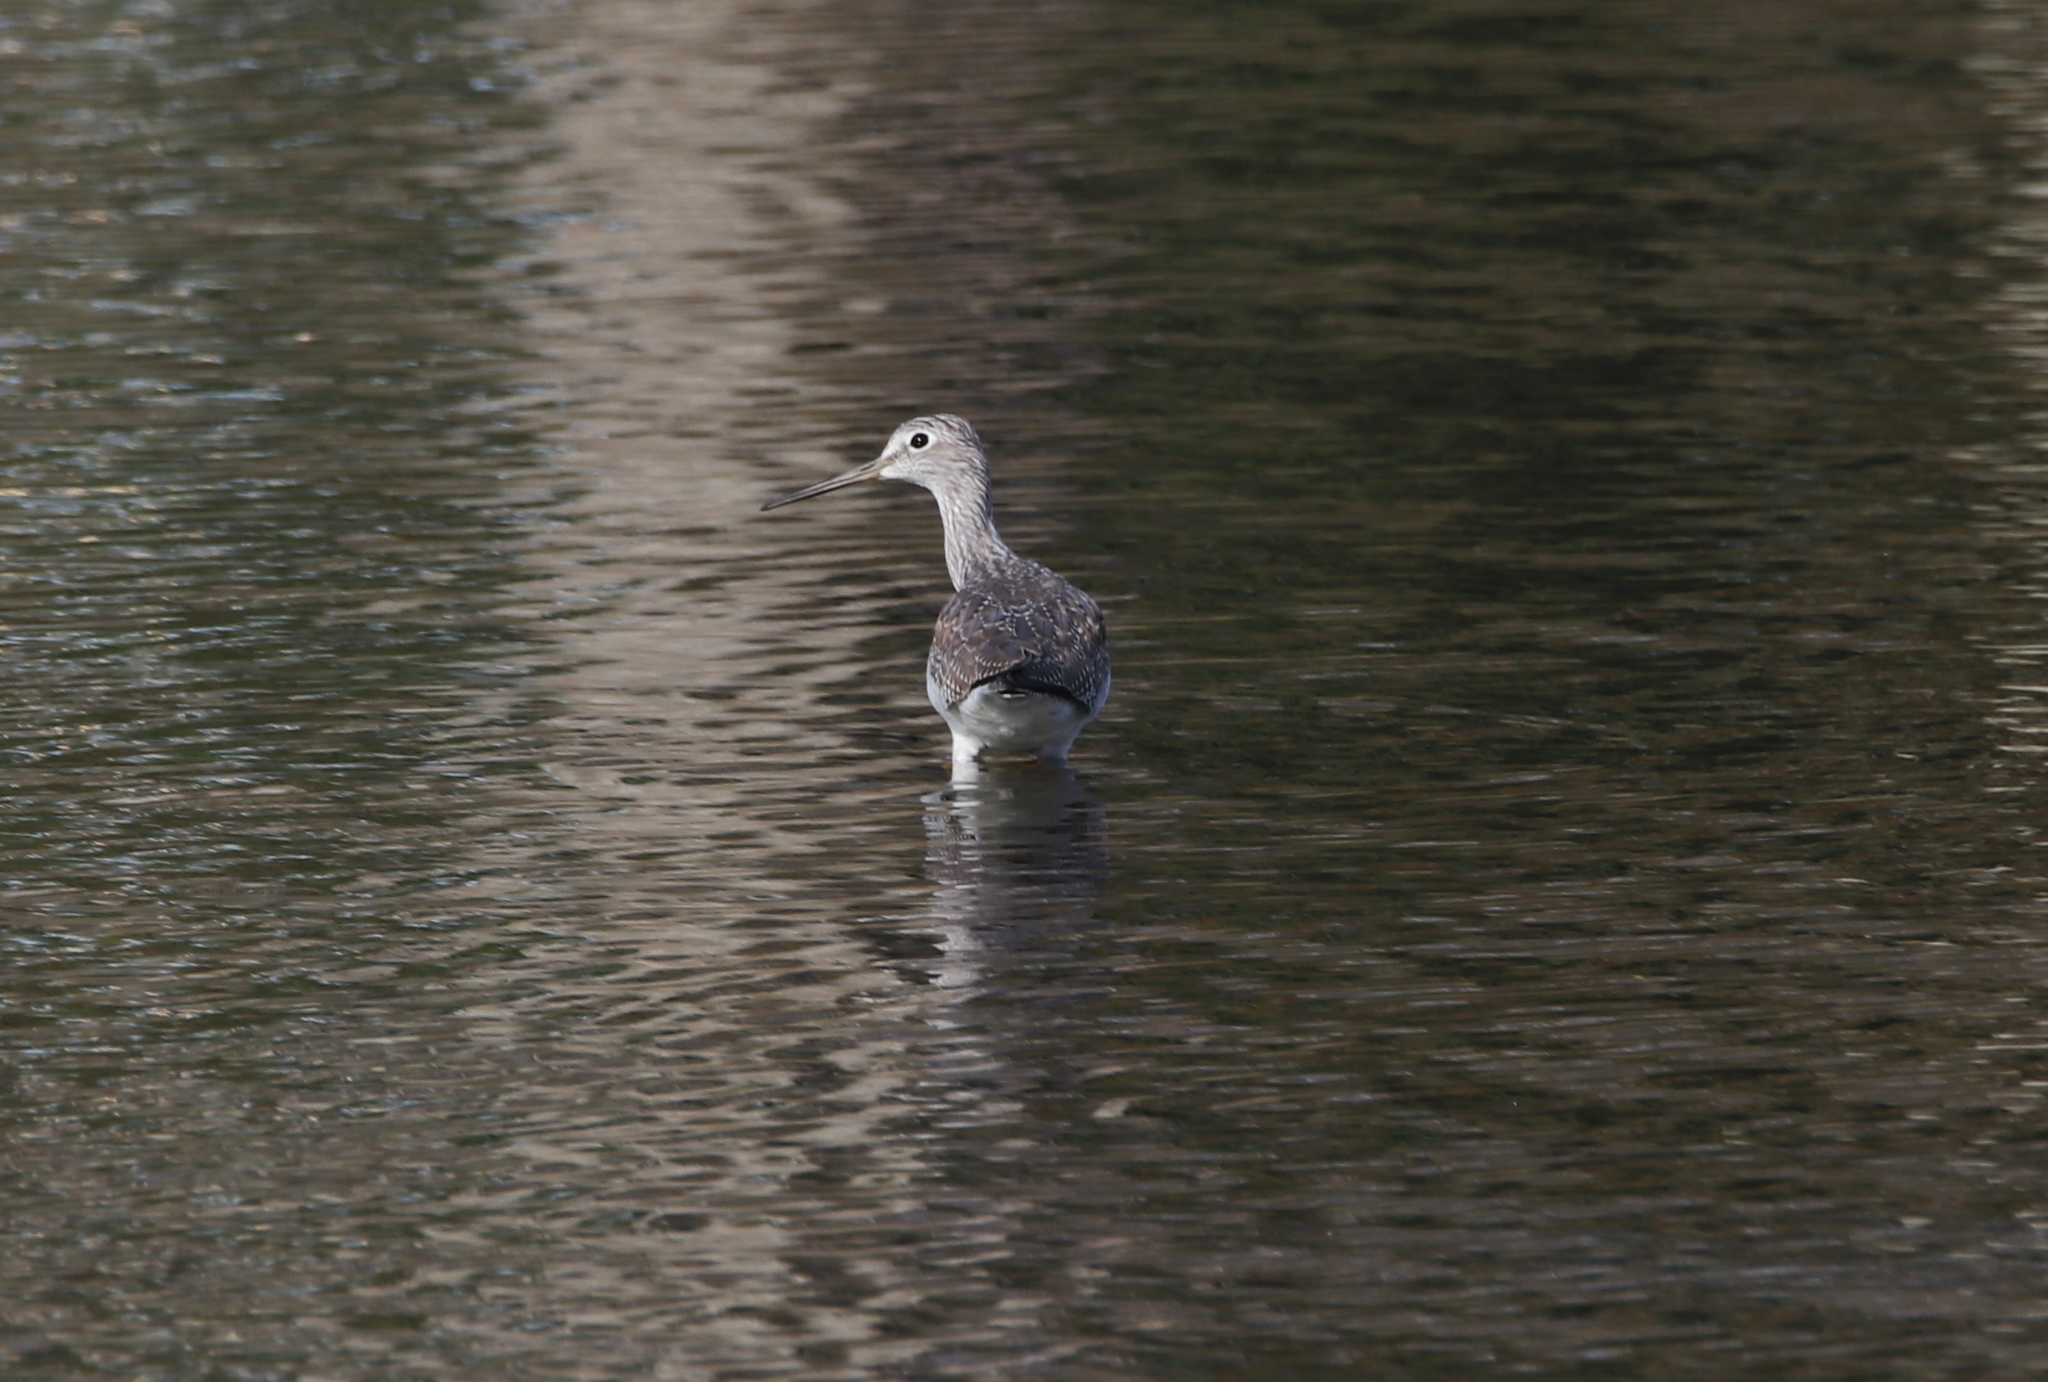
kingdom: Animalia
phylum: Chordata
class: Aves
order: Charadriiformes
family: Scolopacidae
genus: Tringa
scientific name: Tringa melanoleuca
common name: Greater yellowlegs
